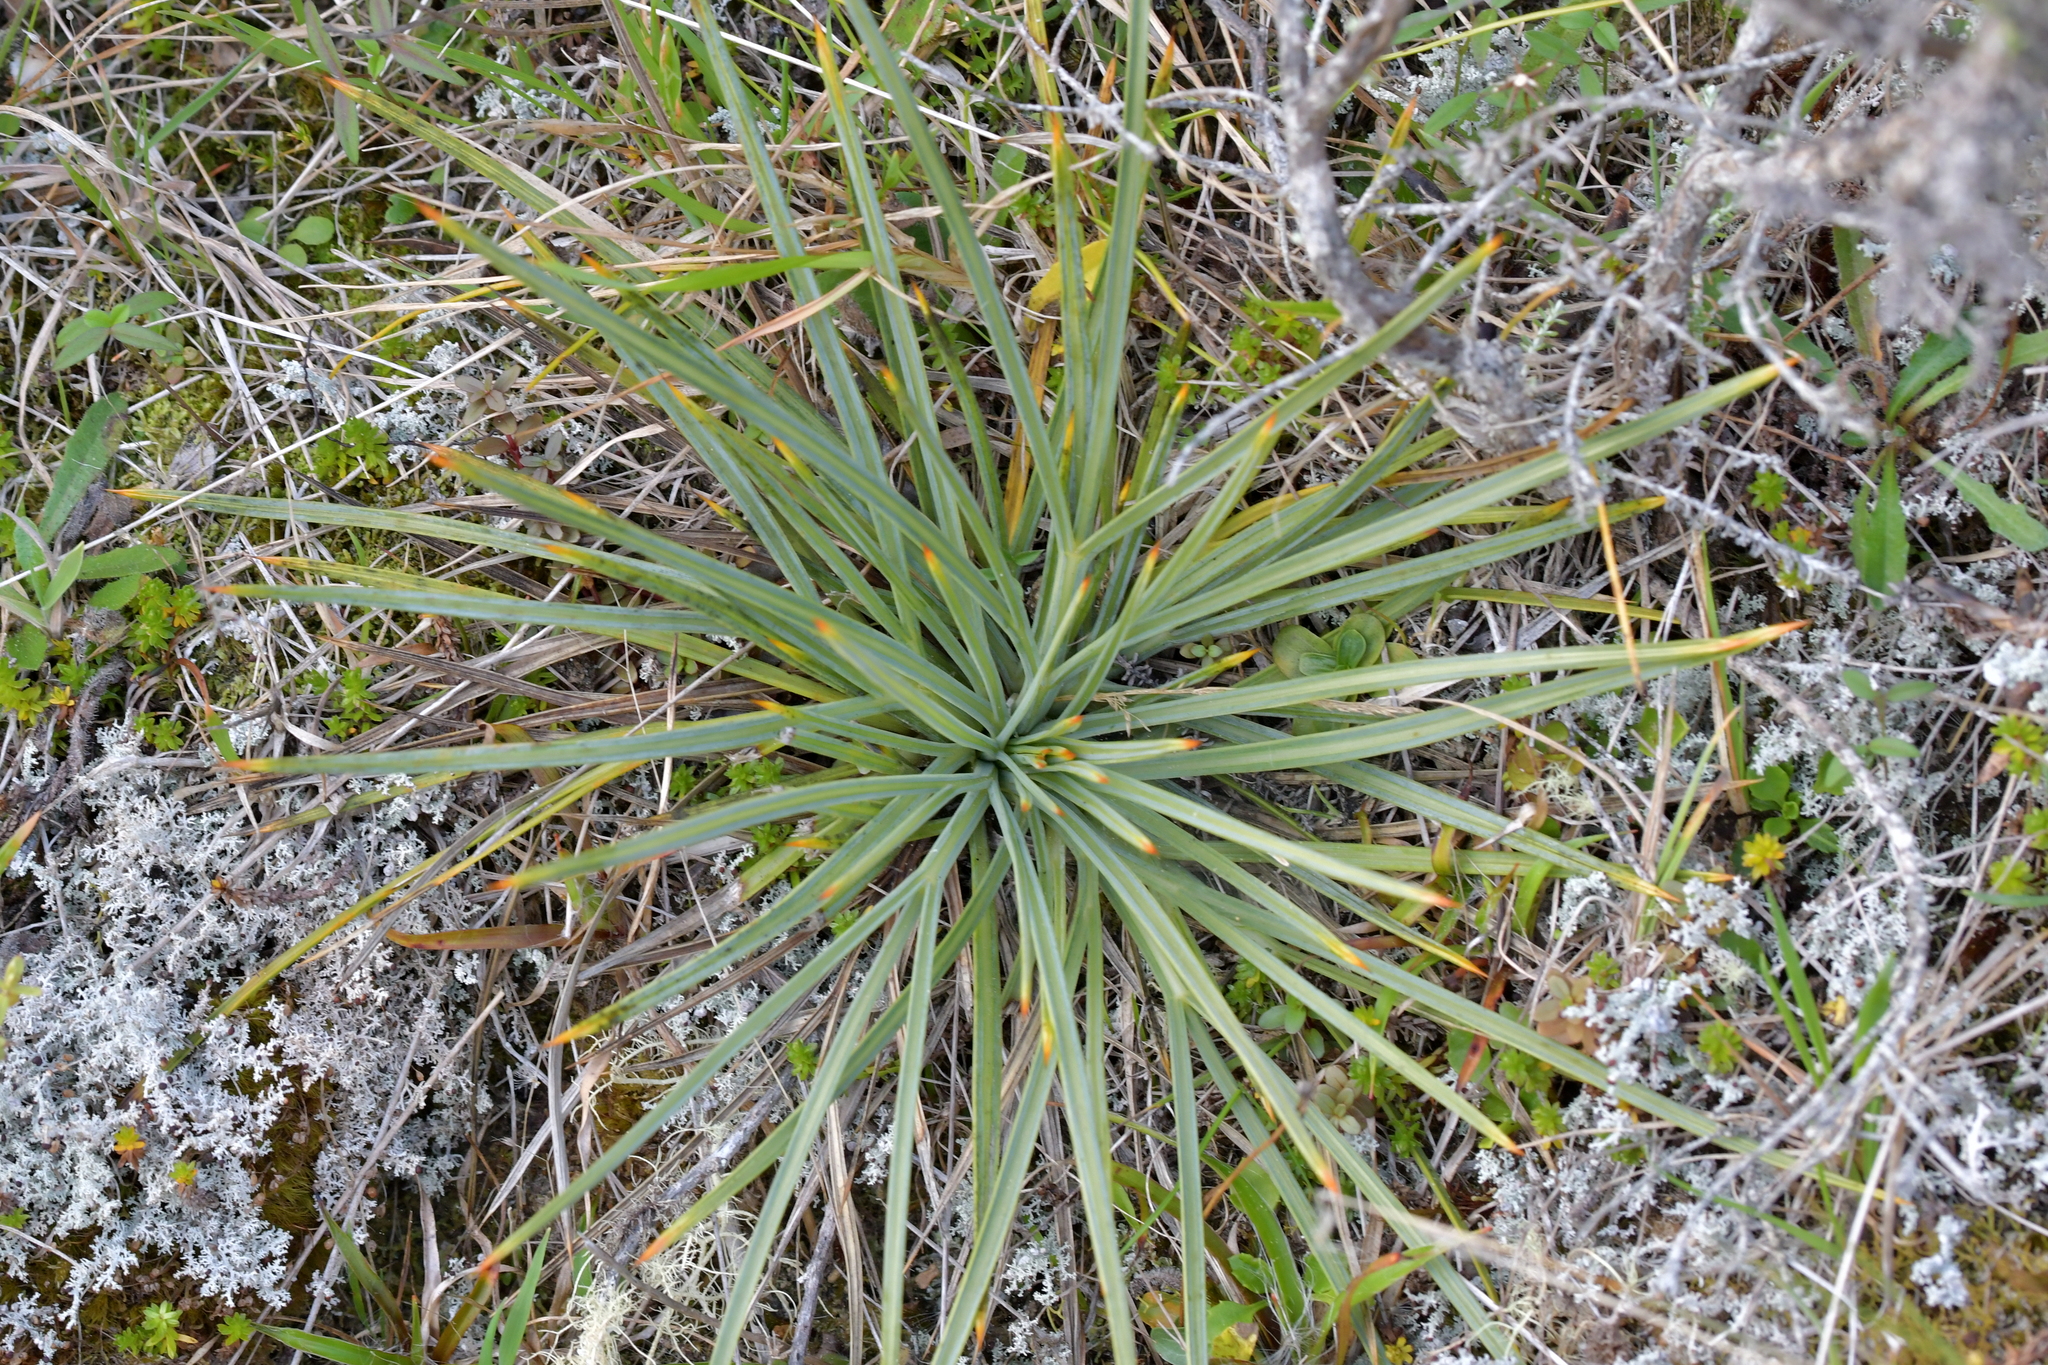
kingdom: Plantae
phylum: Tracheophyta
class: Magnoliopsida
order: Apiales
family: Apiaceae
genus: Aciphylla
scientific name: Aciphylla squarrosa
